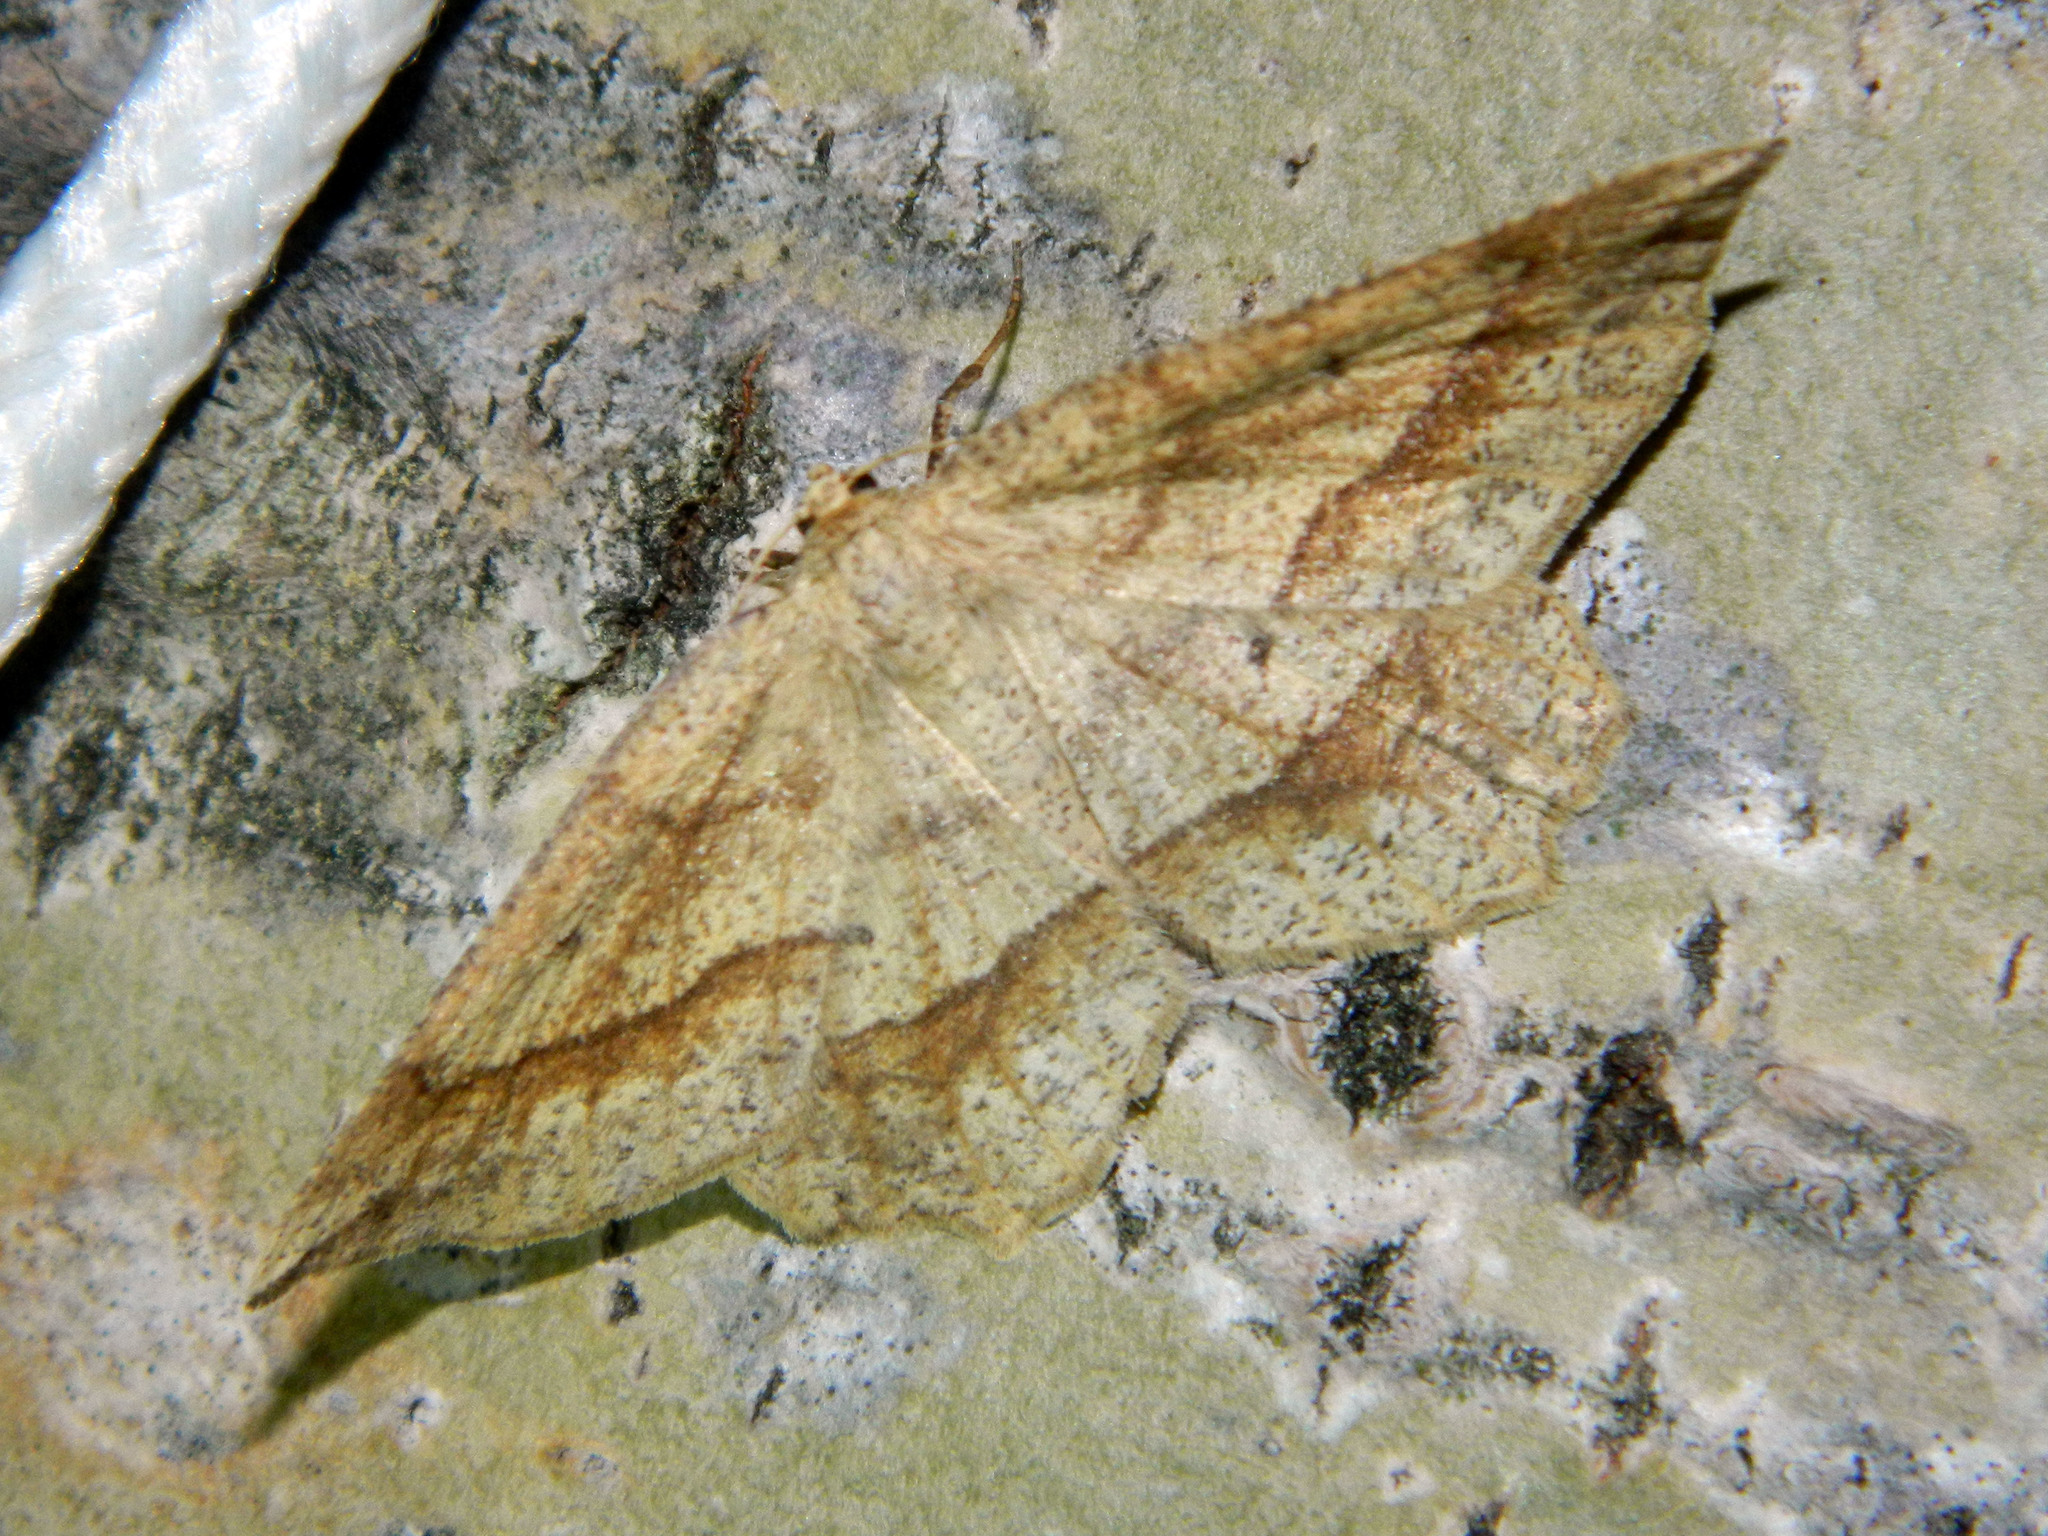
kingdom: Animalia
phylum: Arthropoda
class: Insecta
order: Lepidoptera
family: Geometridae
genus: Euchlaena
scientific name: Euchlaena marginaria
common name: Ochre euchlaena moth
